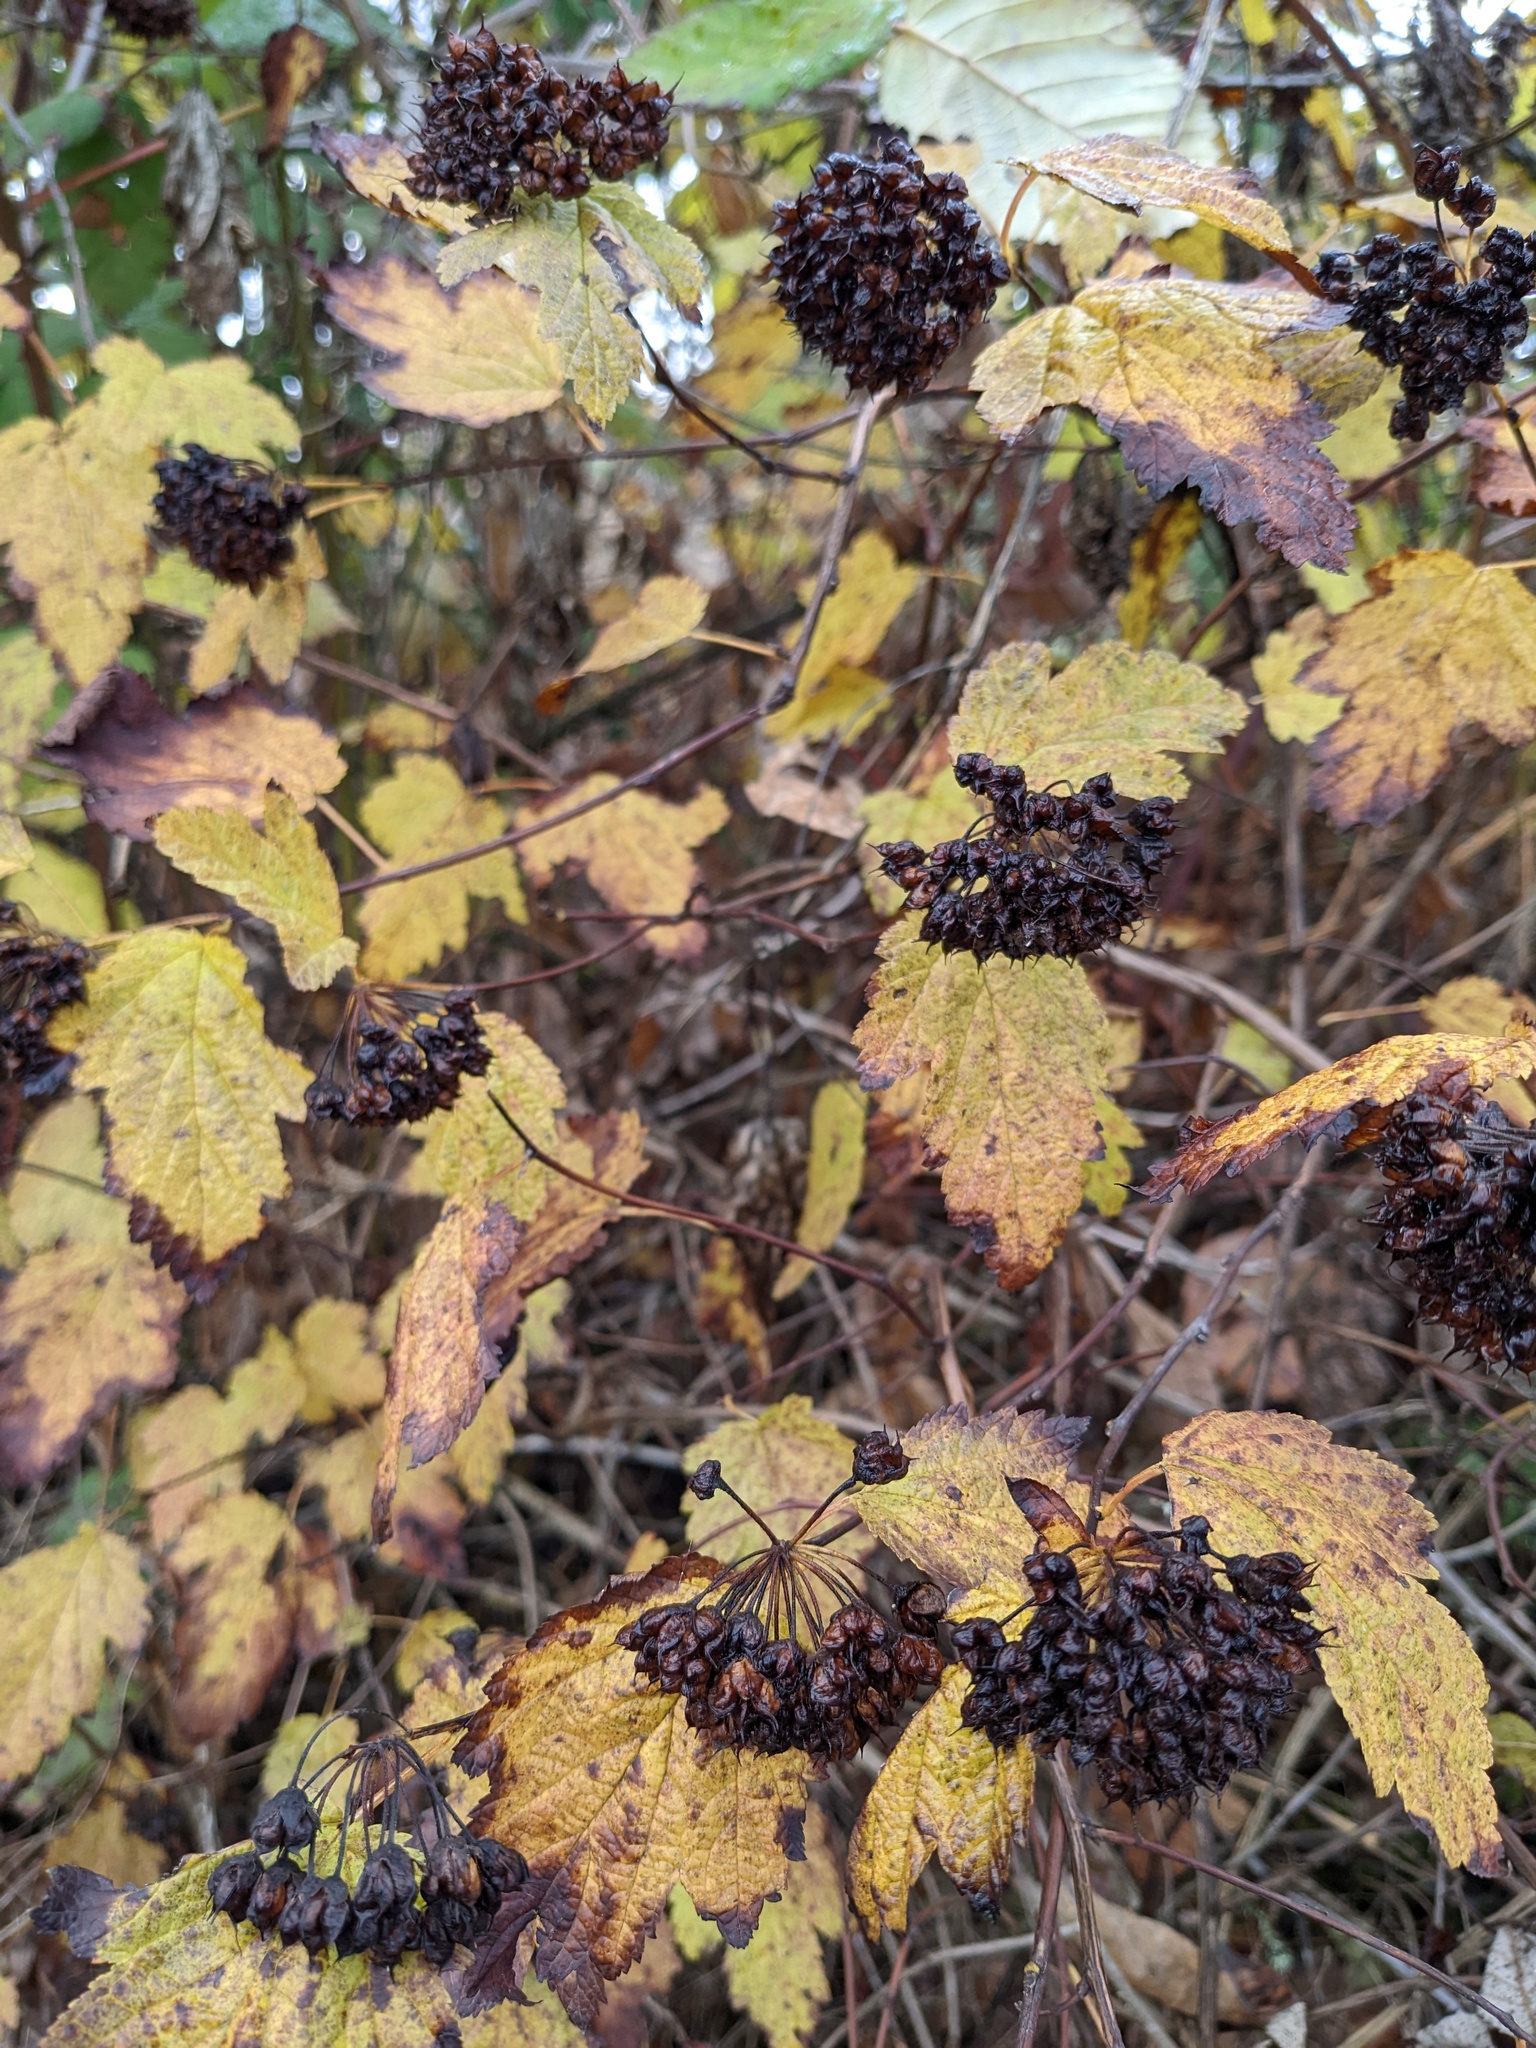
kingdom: Plantae
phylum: Tracheophyta
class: Magnoliopsida
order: Rosales
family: Rosaceae
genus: Physocarpus
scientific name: Physocarpus capitatus
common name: Pacific ninebark
